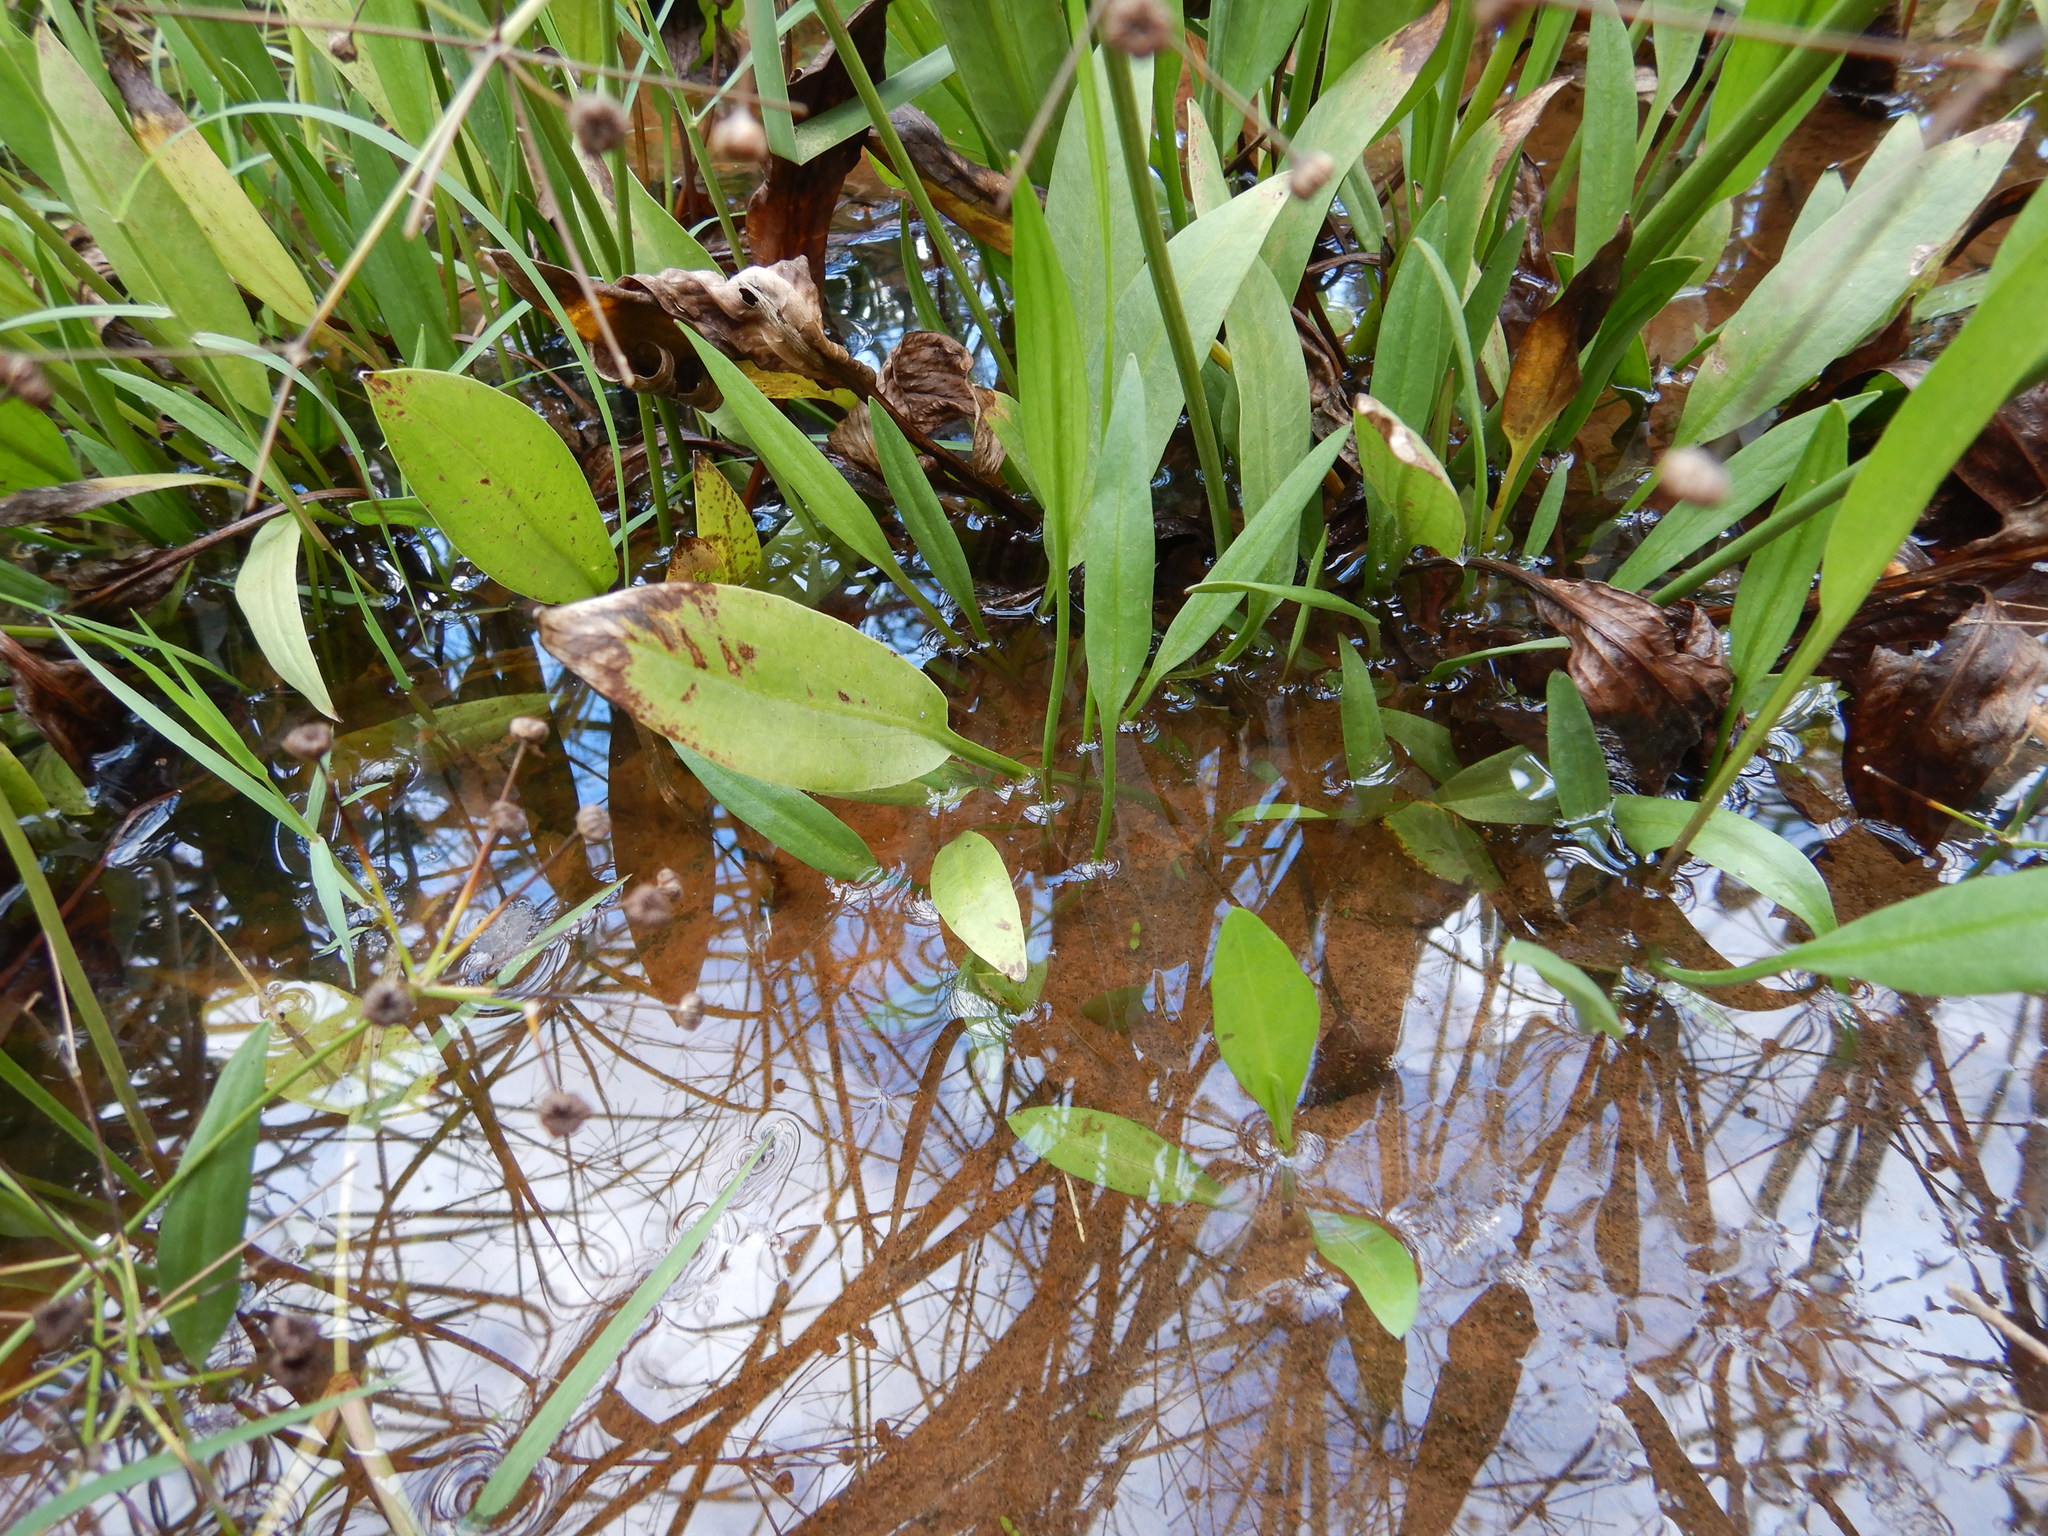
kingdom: Plantae
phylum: Tracheophyta
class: Liliopsida
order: Alismatales
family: Alismataceae
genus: Alisma
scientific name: Alisma lanceolatum
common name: Narrow-leaved water-plantain
